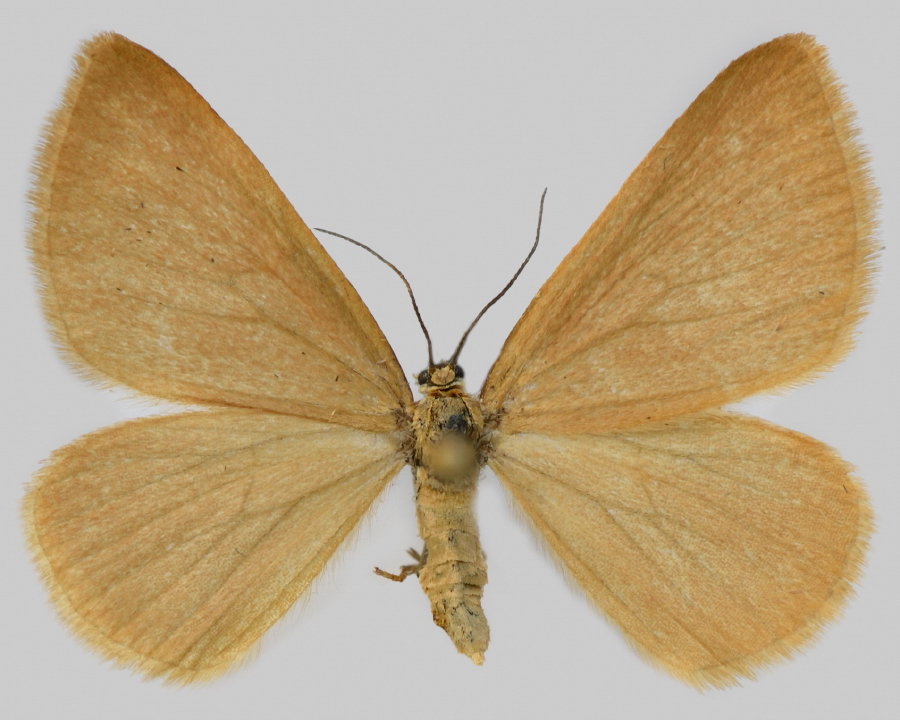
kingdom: Animalia
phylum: Arthropoda
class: Insecta
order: Lepidoptera
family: Geometridae
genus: Minoa
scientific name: Minoa murinata
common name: Drab looper
